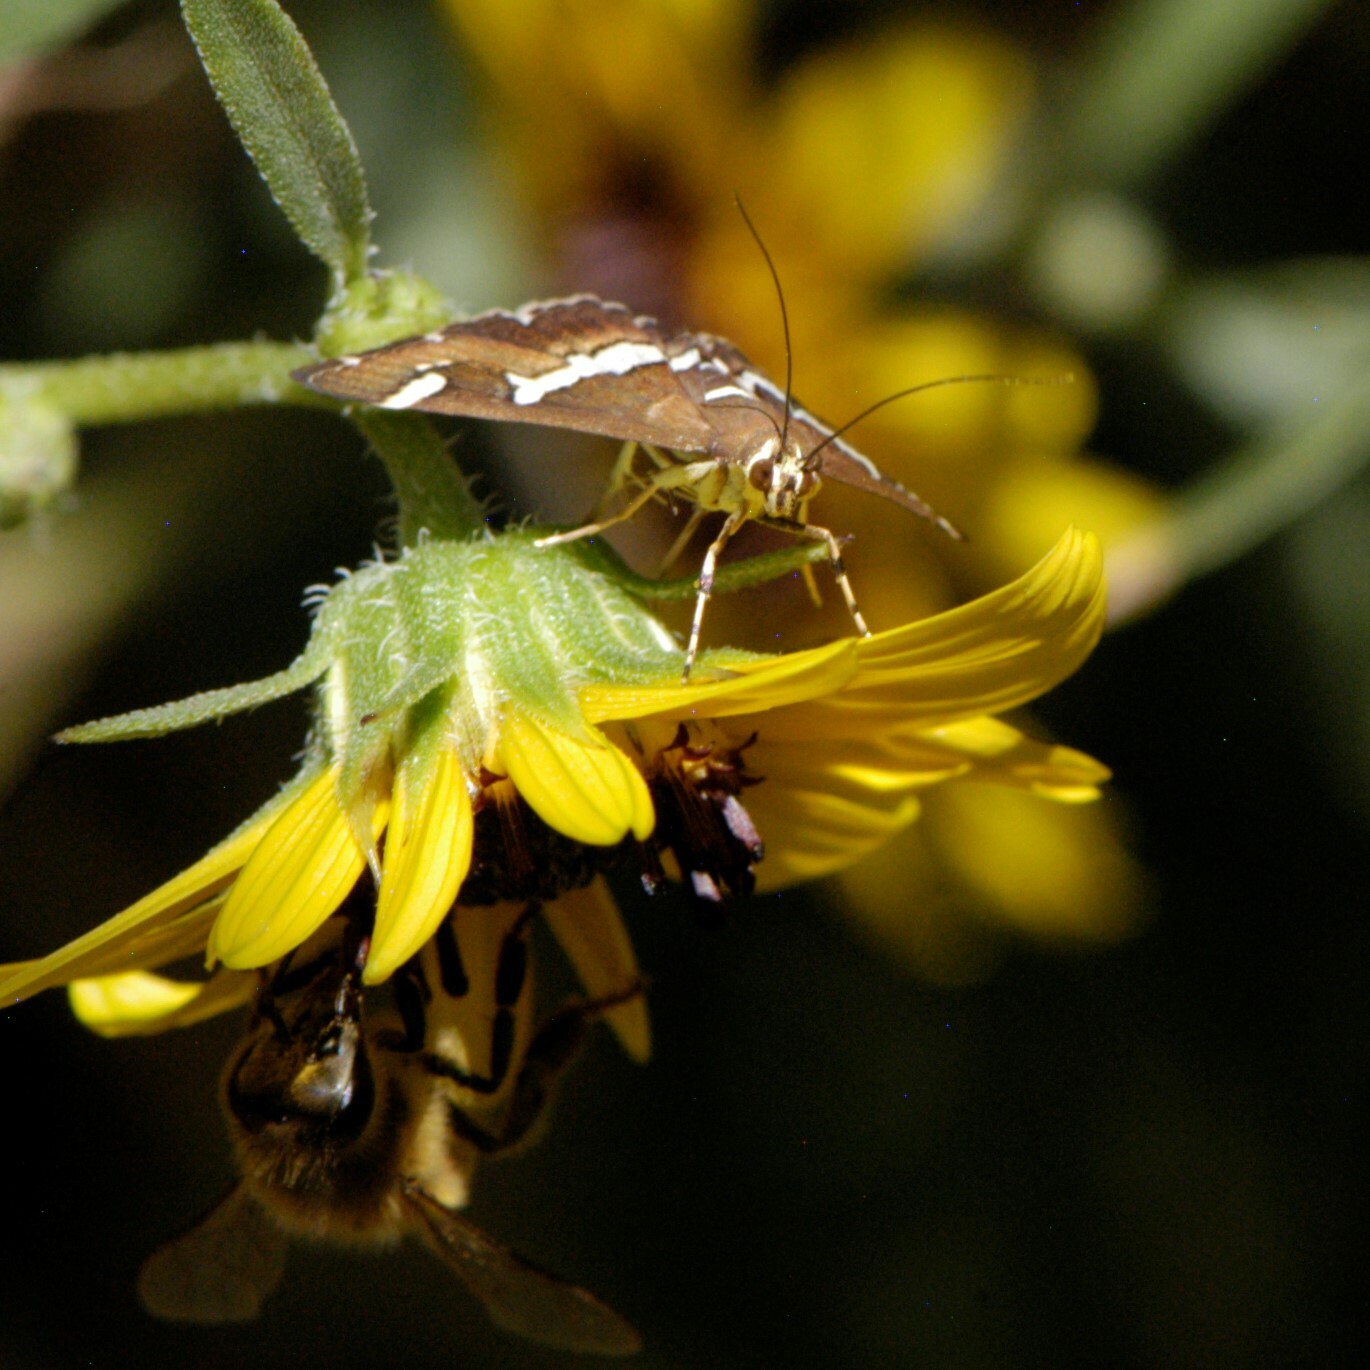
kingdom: Animalia
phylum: Arthropoda
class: Insecta
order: Lepidoptera
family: Crambidae
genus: Spoladea
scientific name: Spoladea recurvalis
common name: Beet webworm moth
